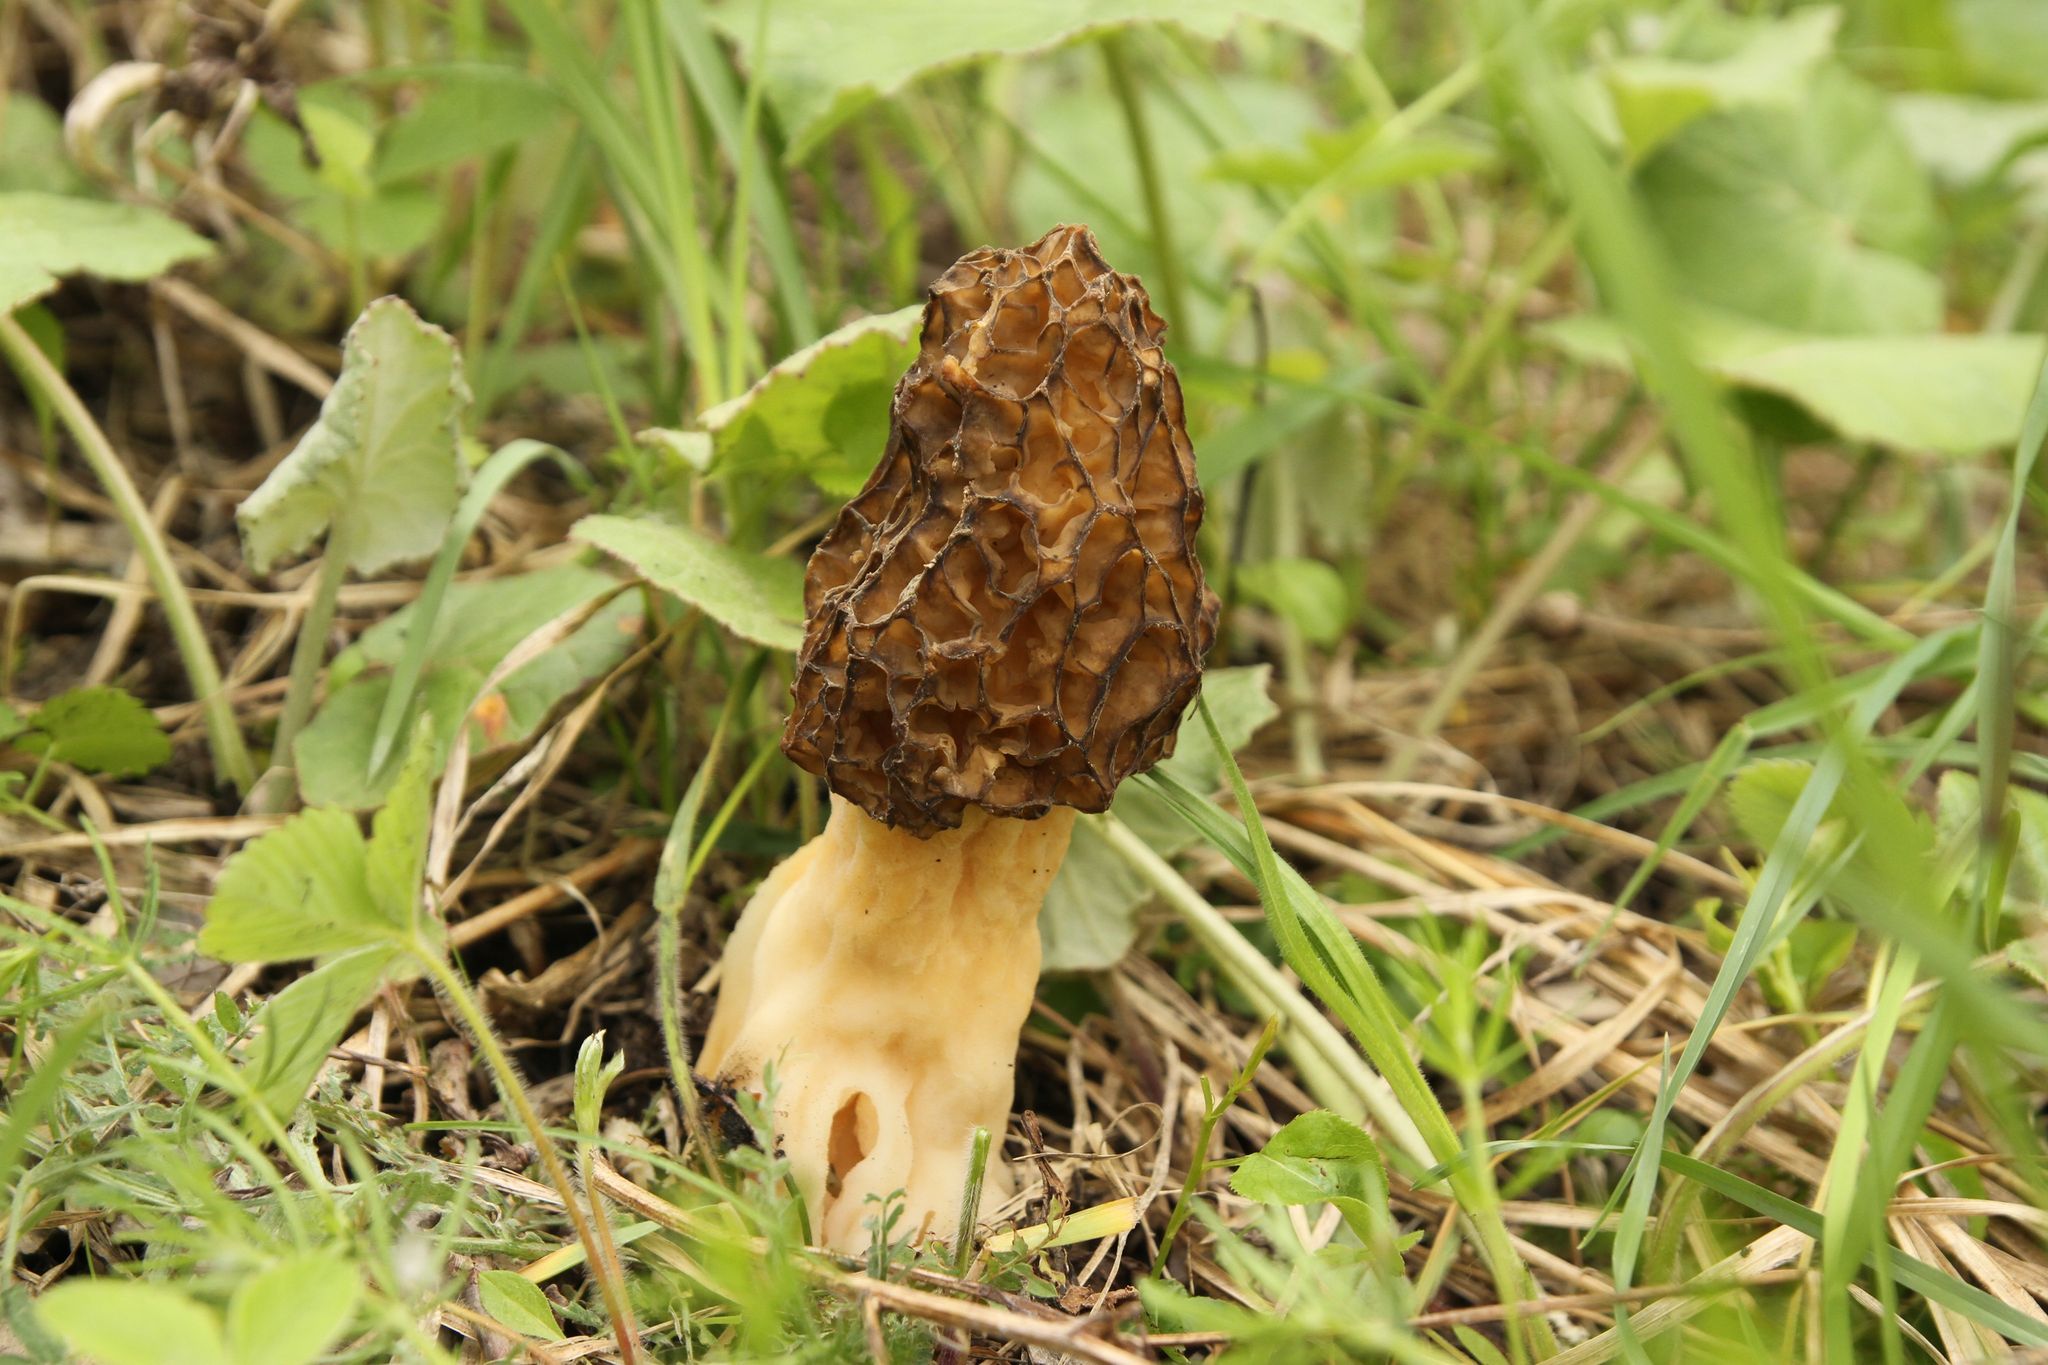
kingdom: Fungi
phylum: Ascomycota
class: Pezizomycetes
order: Pezizales
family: Morchellaceae
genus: Morchella
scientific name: Morchella vulgaris
